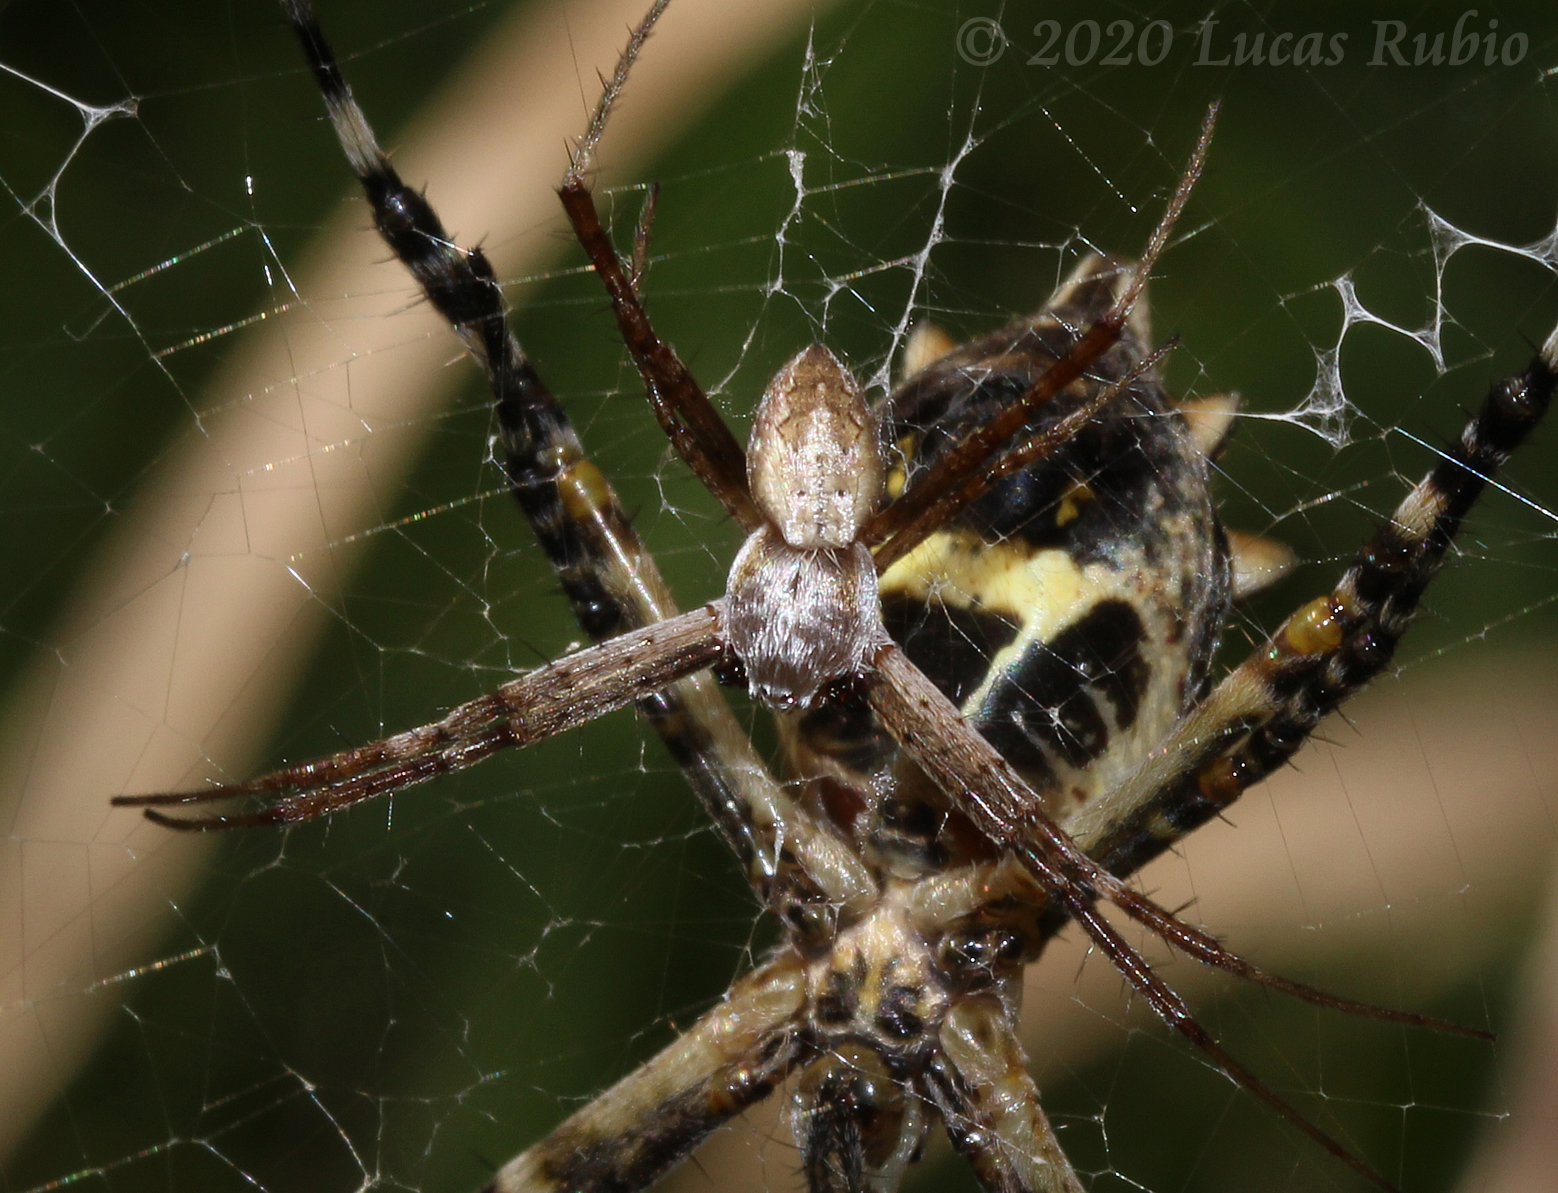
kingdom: Animalia
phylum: Arthropoda
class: Arachnida
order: Araneae
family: Araneidae
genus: Argiope
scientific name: Argiope argentata
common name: Orb weavers
